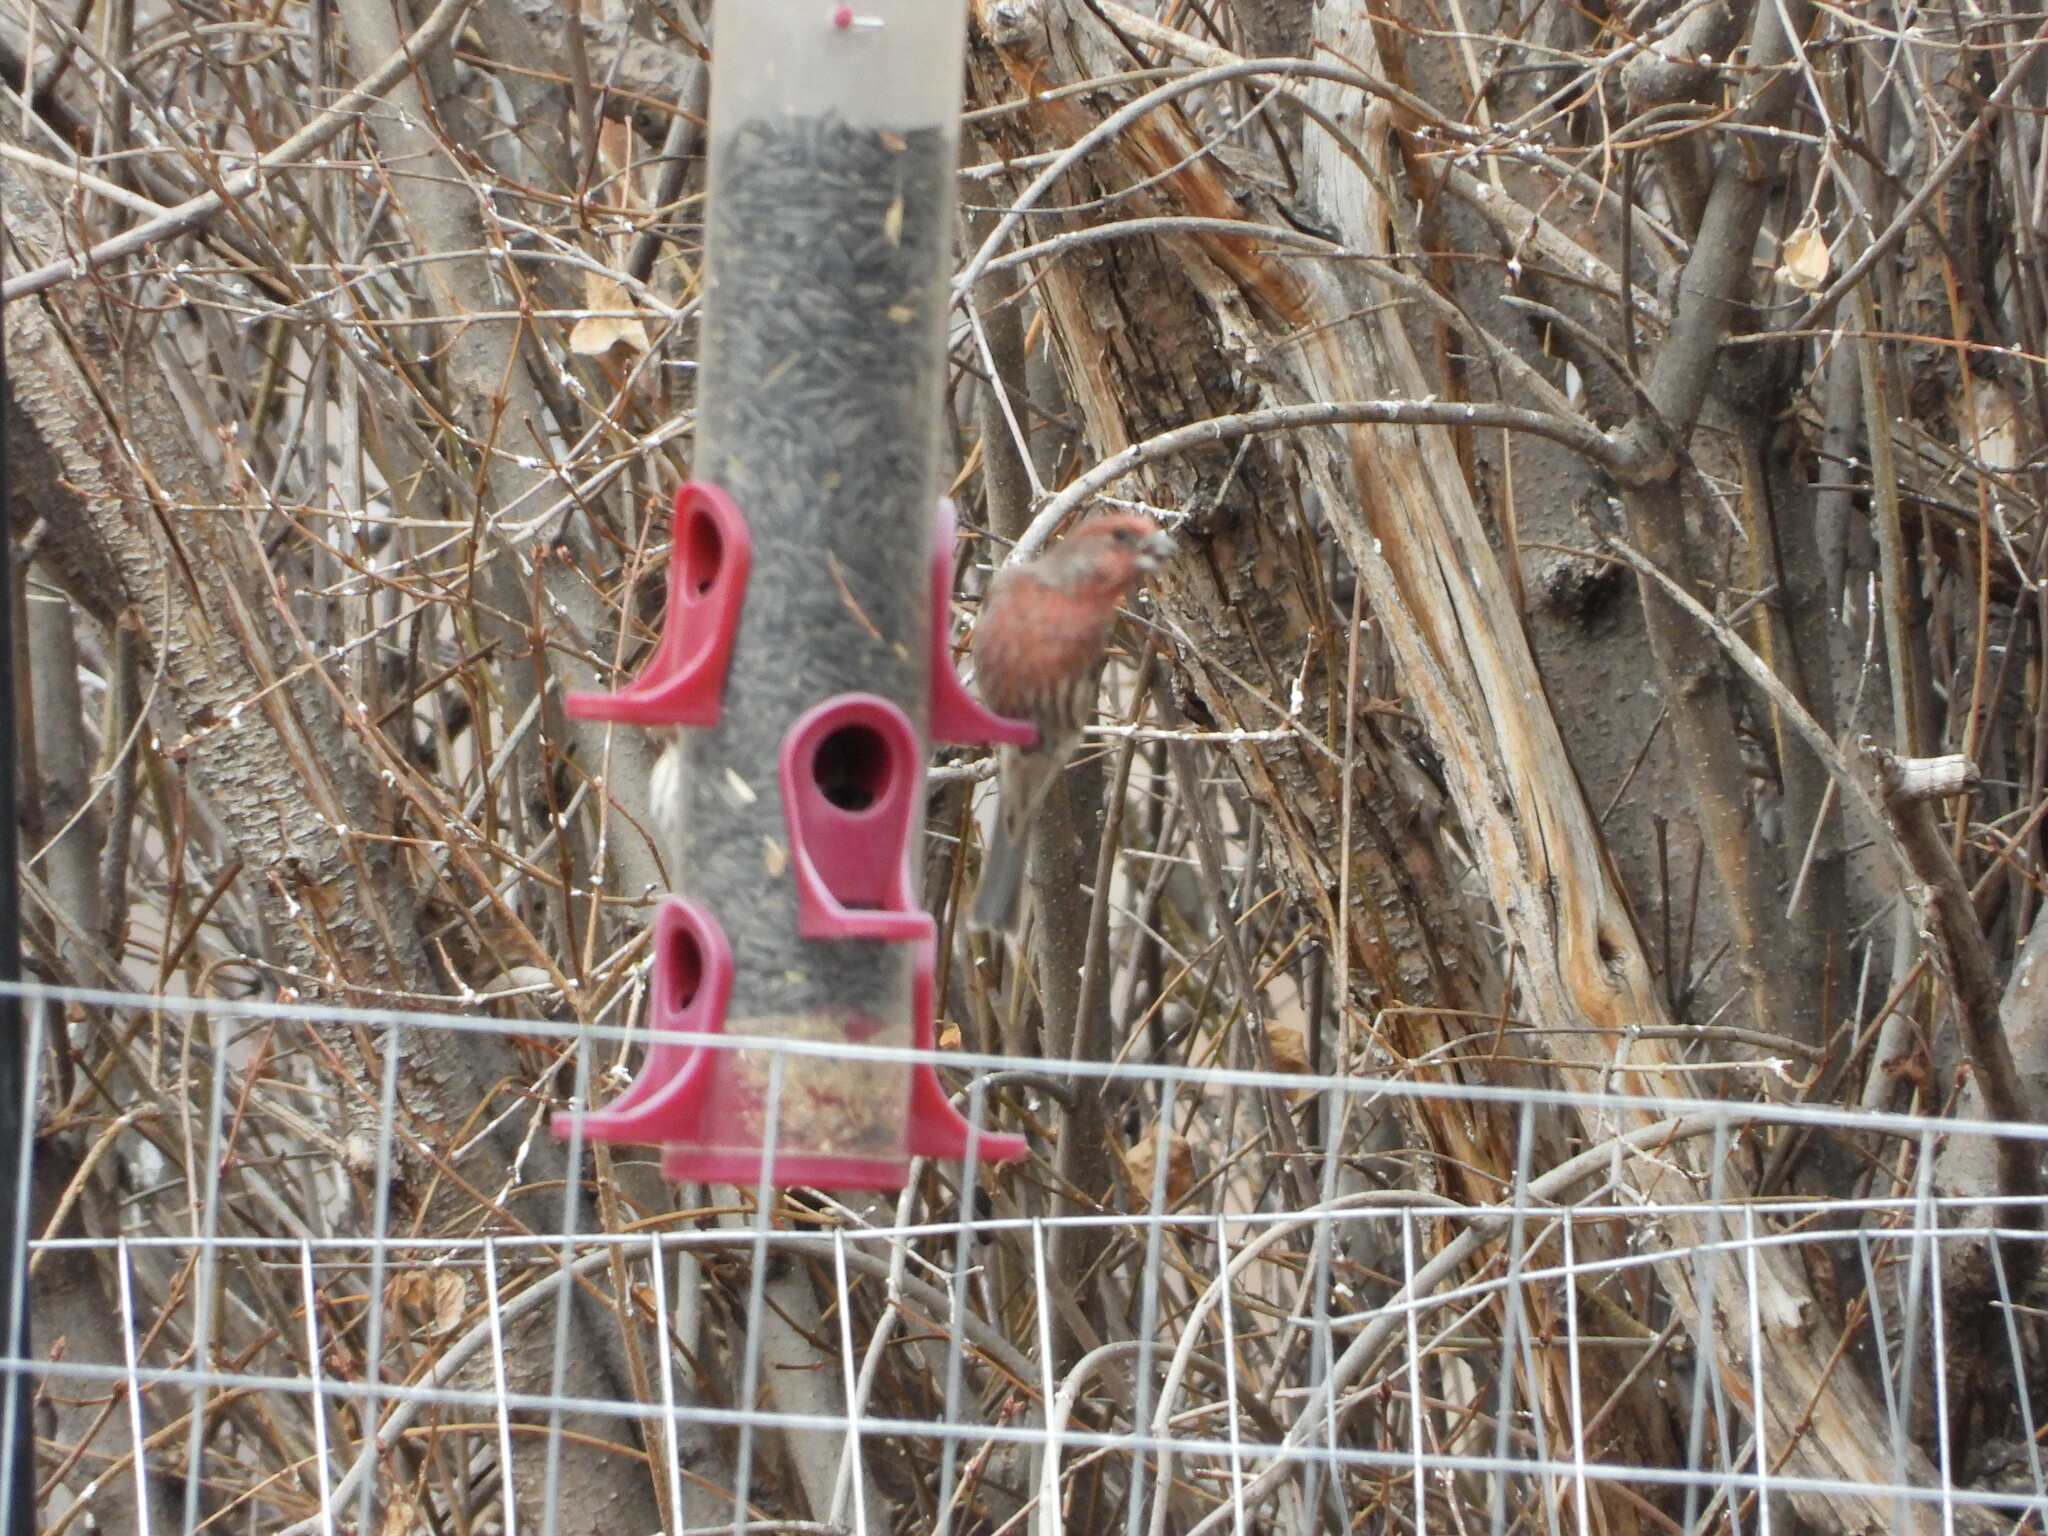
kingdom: Animalia
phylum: Chordata
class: Aves
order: Passeriformes
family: Fringillidae
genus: Haemorhous
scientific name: Haemorhous mexicanus
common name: House finch
